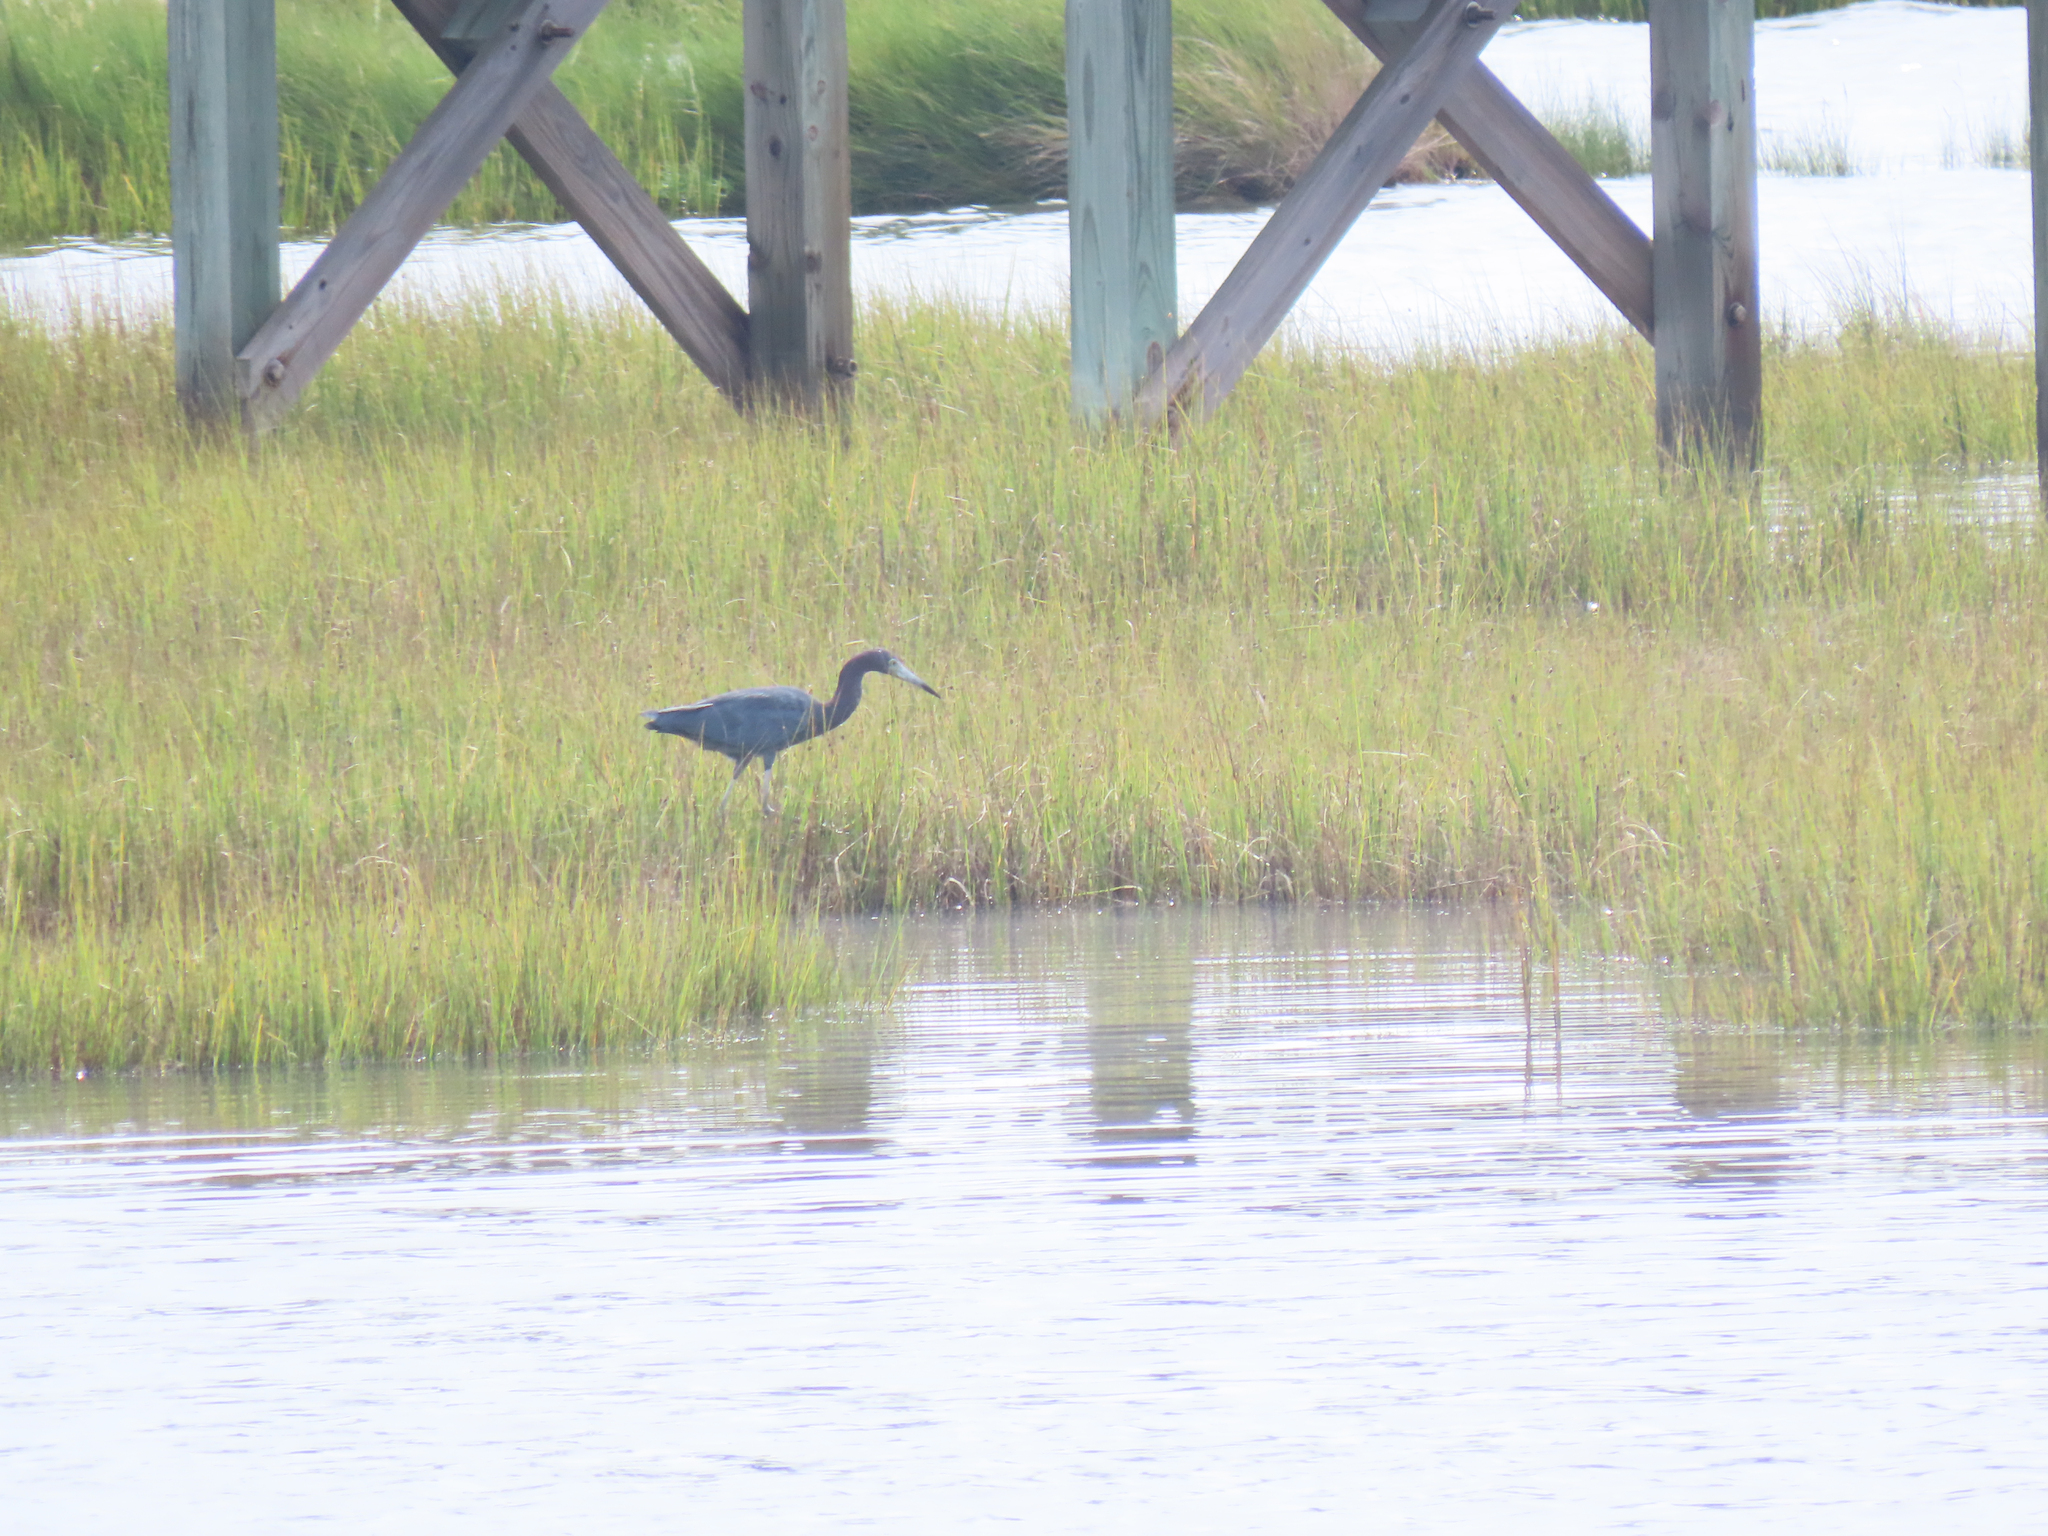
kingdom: Animalia
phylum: Chordata
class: Aves
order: Pelecaniformes
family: Ardeidae
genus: Egretta
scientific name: Egretta caerulea
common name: Little blue heron
